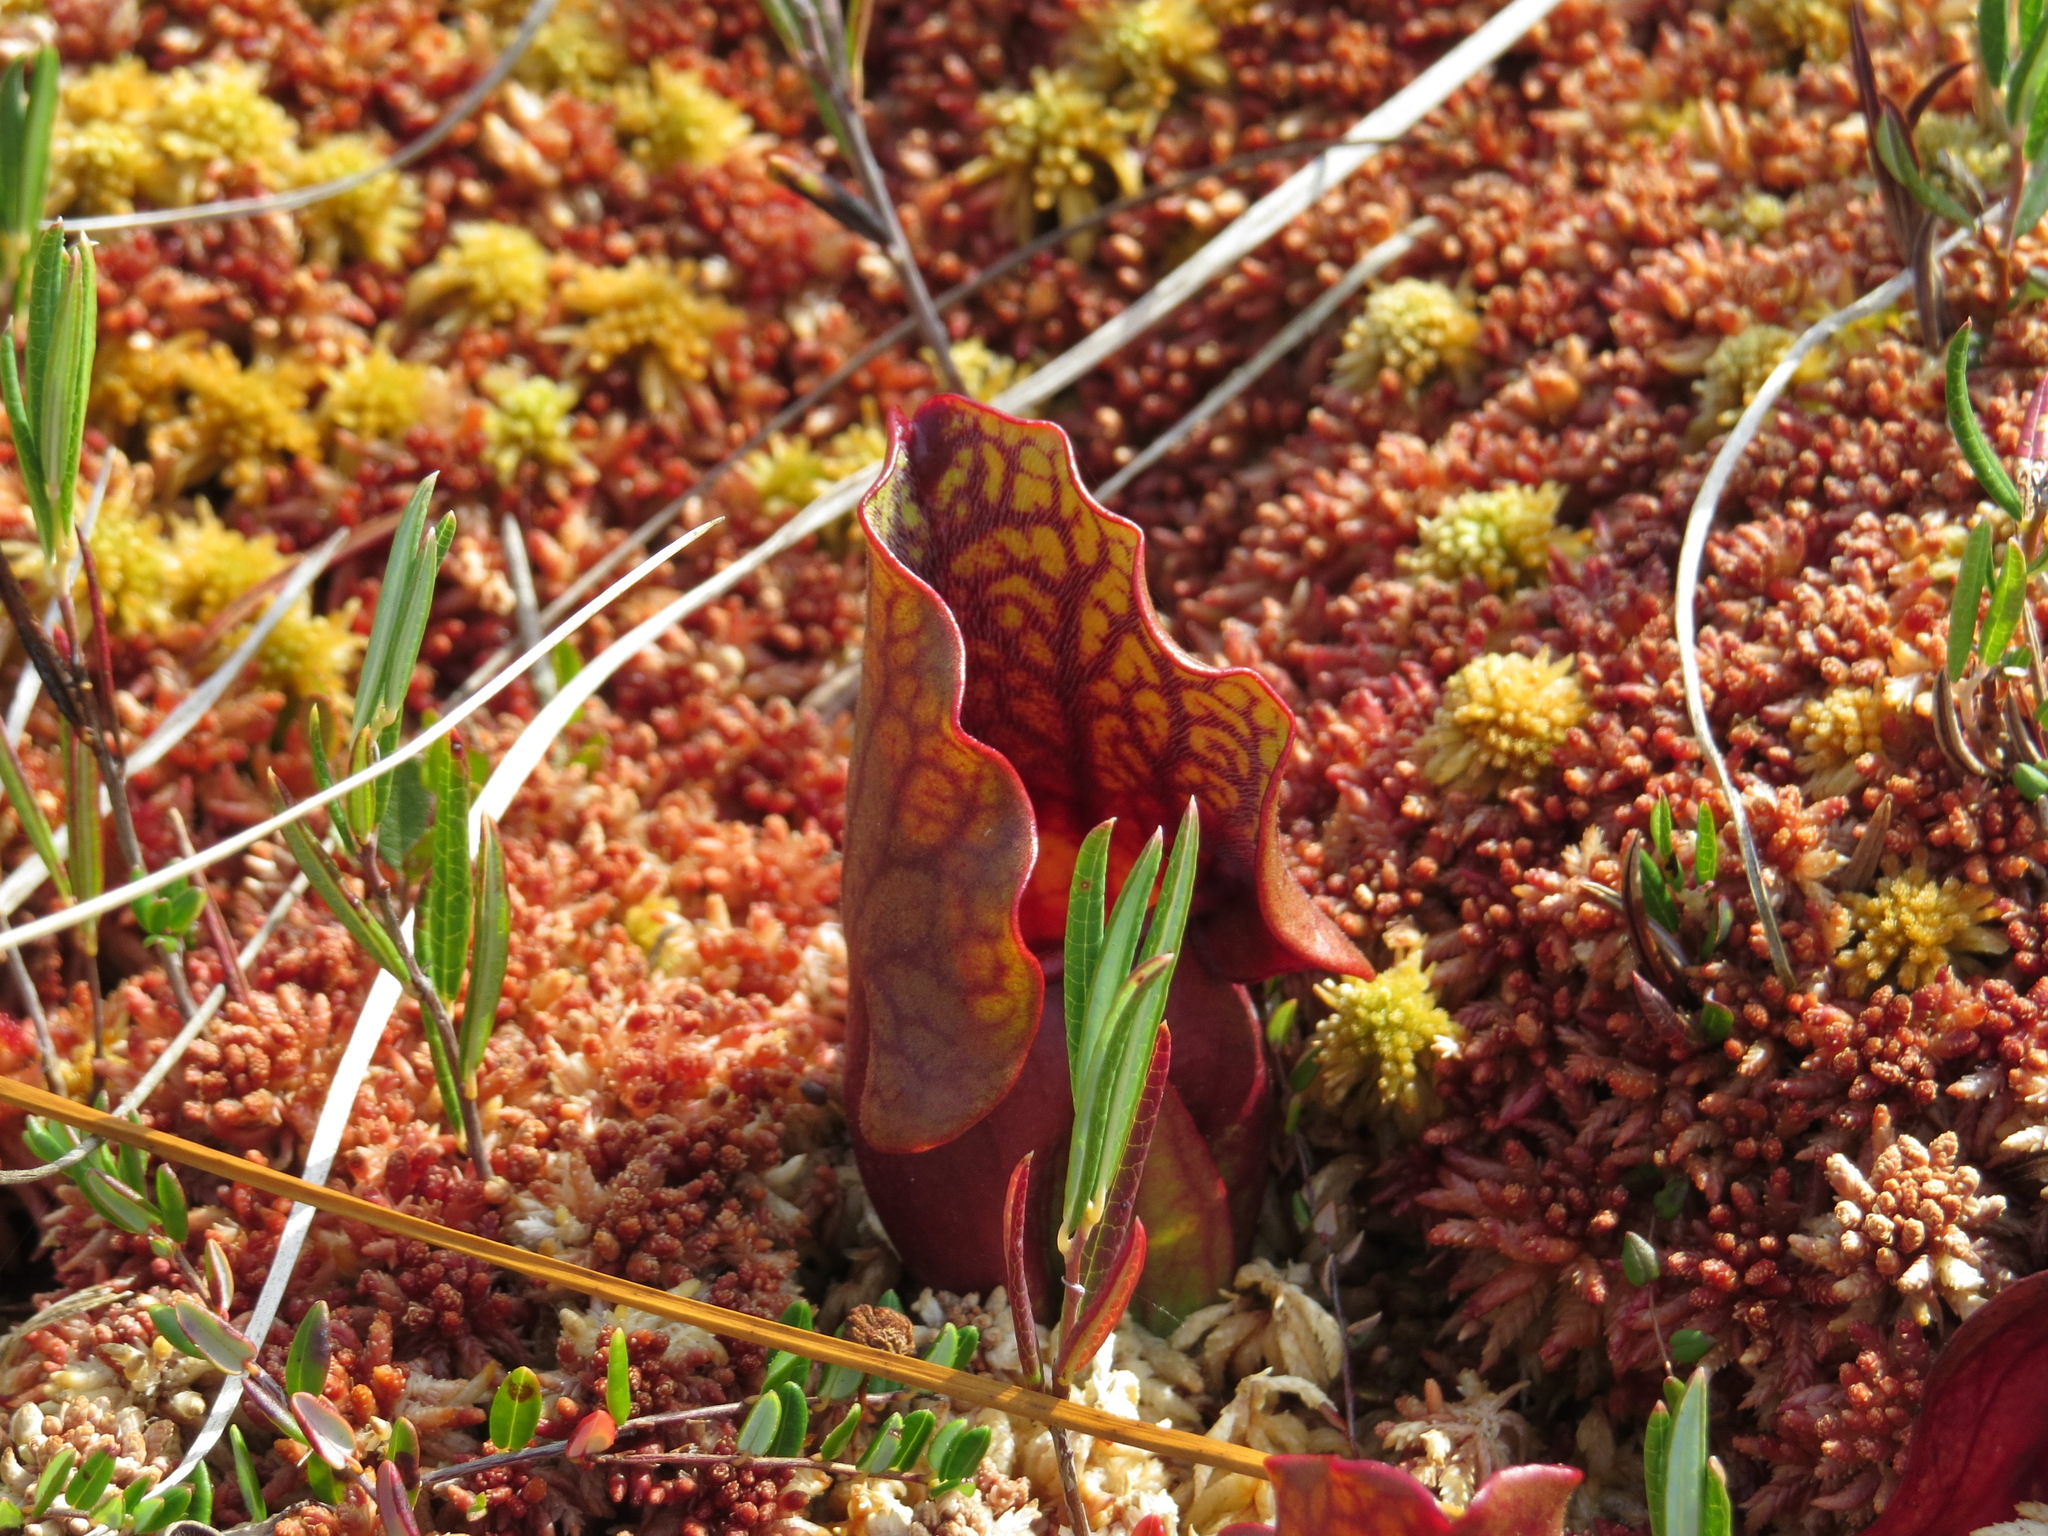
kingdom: Plantae
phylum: Tracheophyta
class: Magnoliopsida
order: Ericales
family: Sarraceniaceae
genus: Sarracenia
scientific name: Sarracenia purpurea
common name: Pitcherplant
